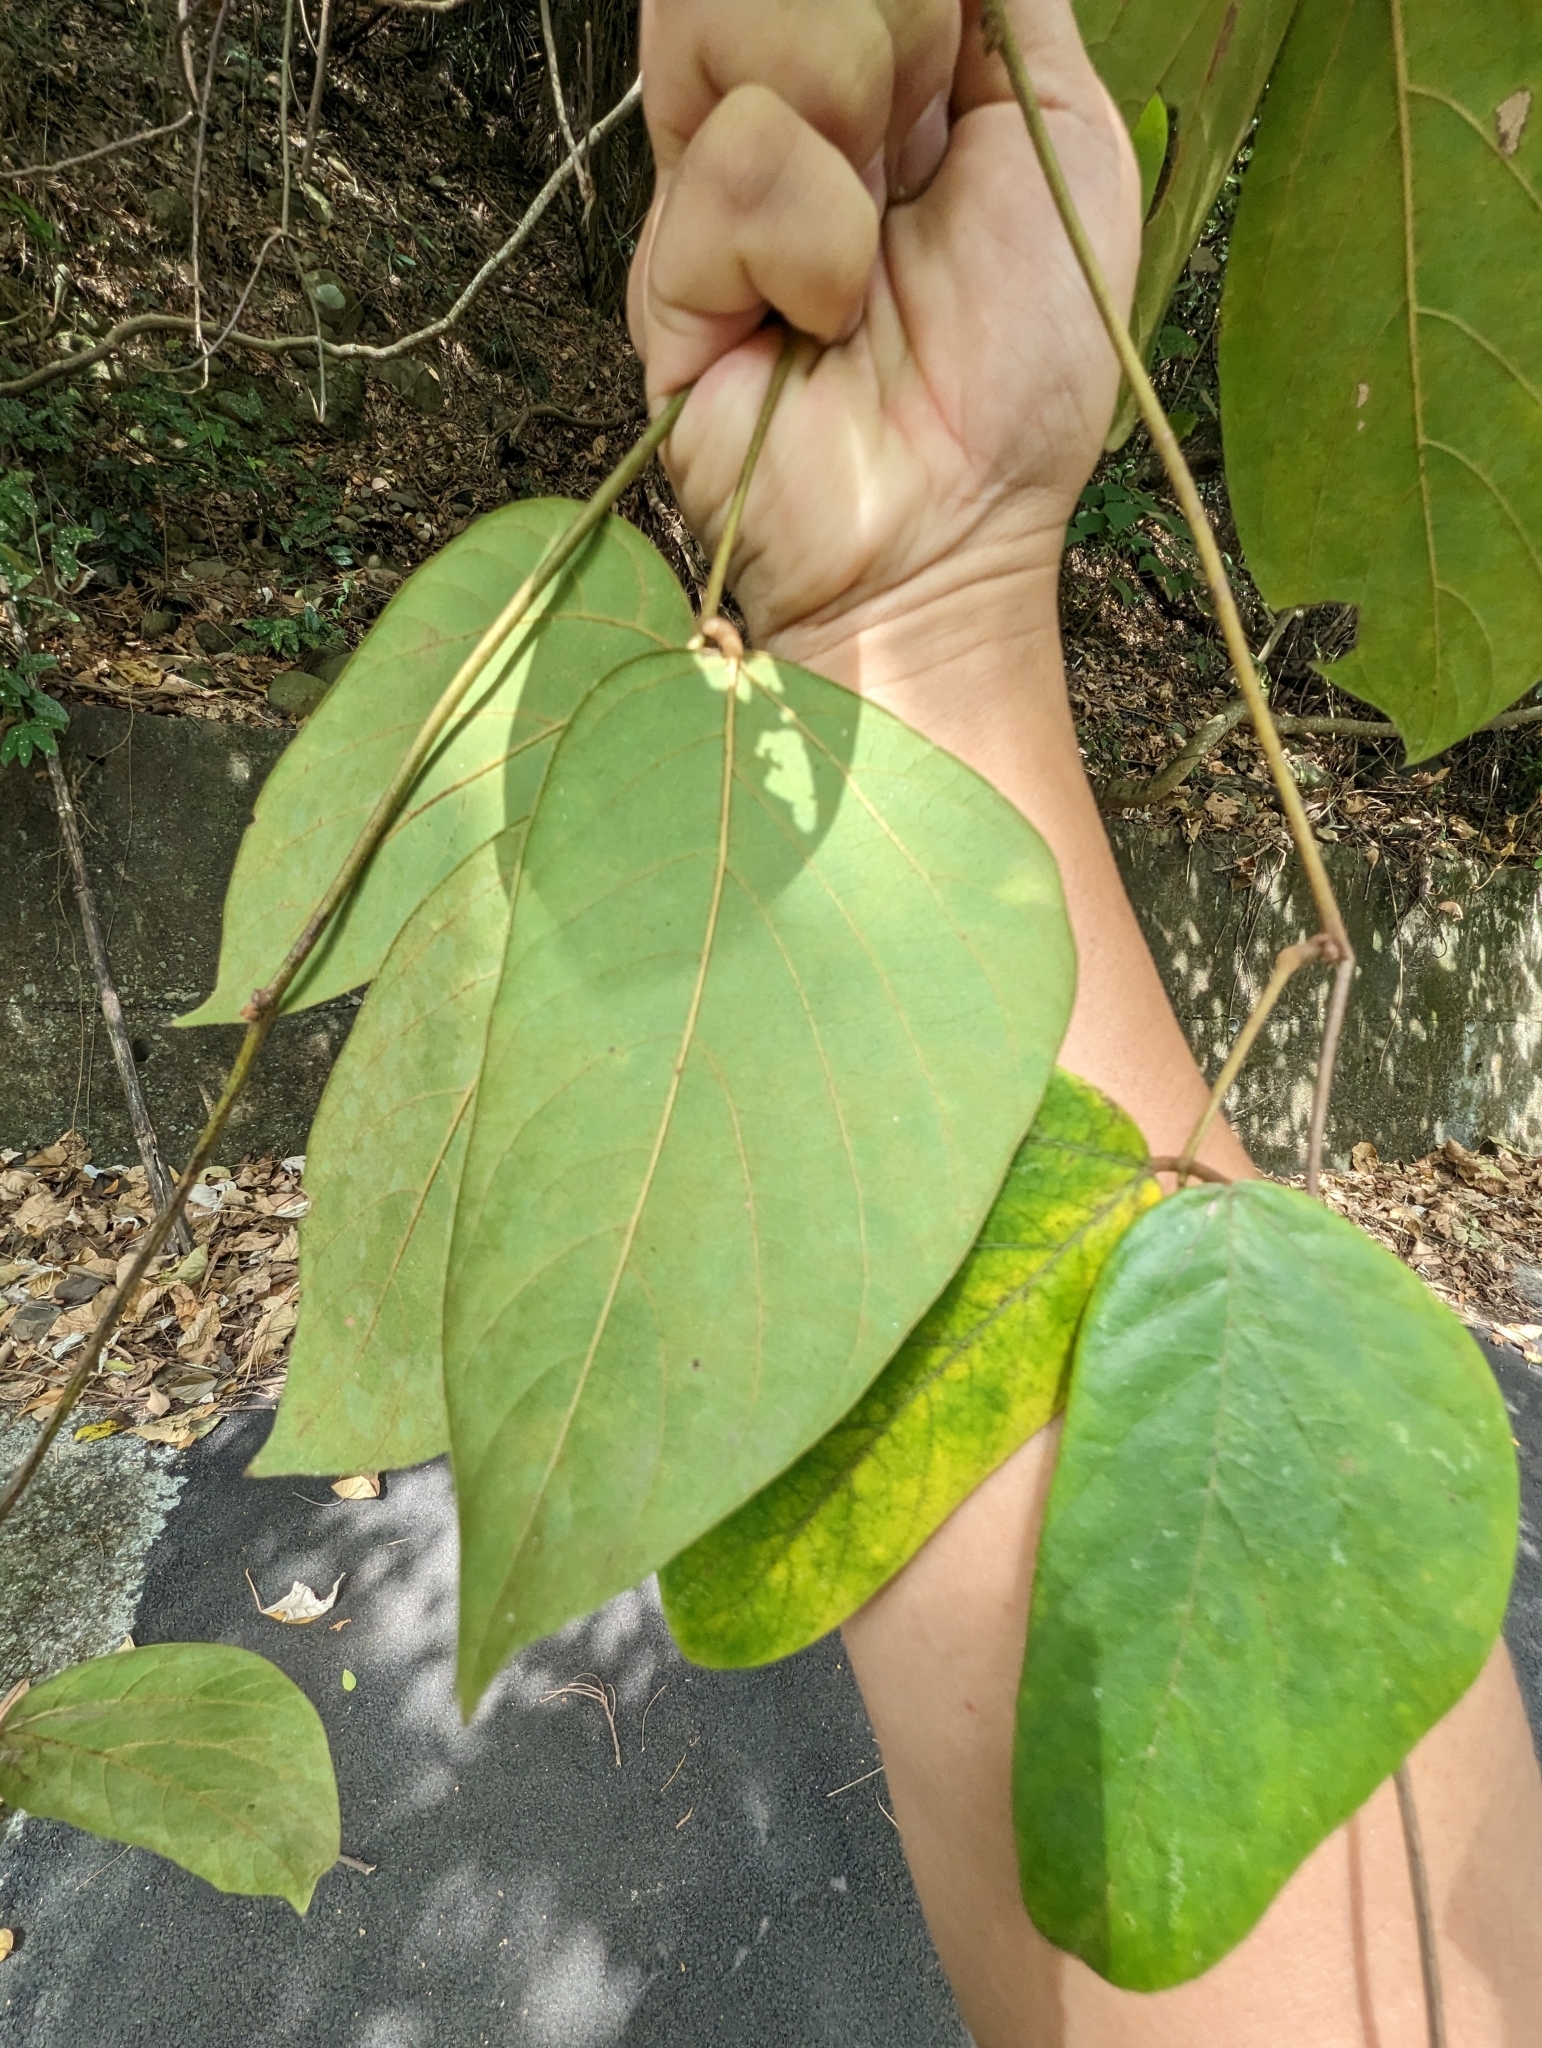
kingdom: Plantae
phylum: Tracheophyta
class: Magnoliopsida
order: Fabales
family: Fabaceae
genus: Mucuna
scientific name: Mucuna macrocarpa
